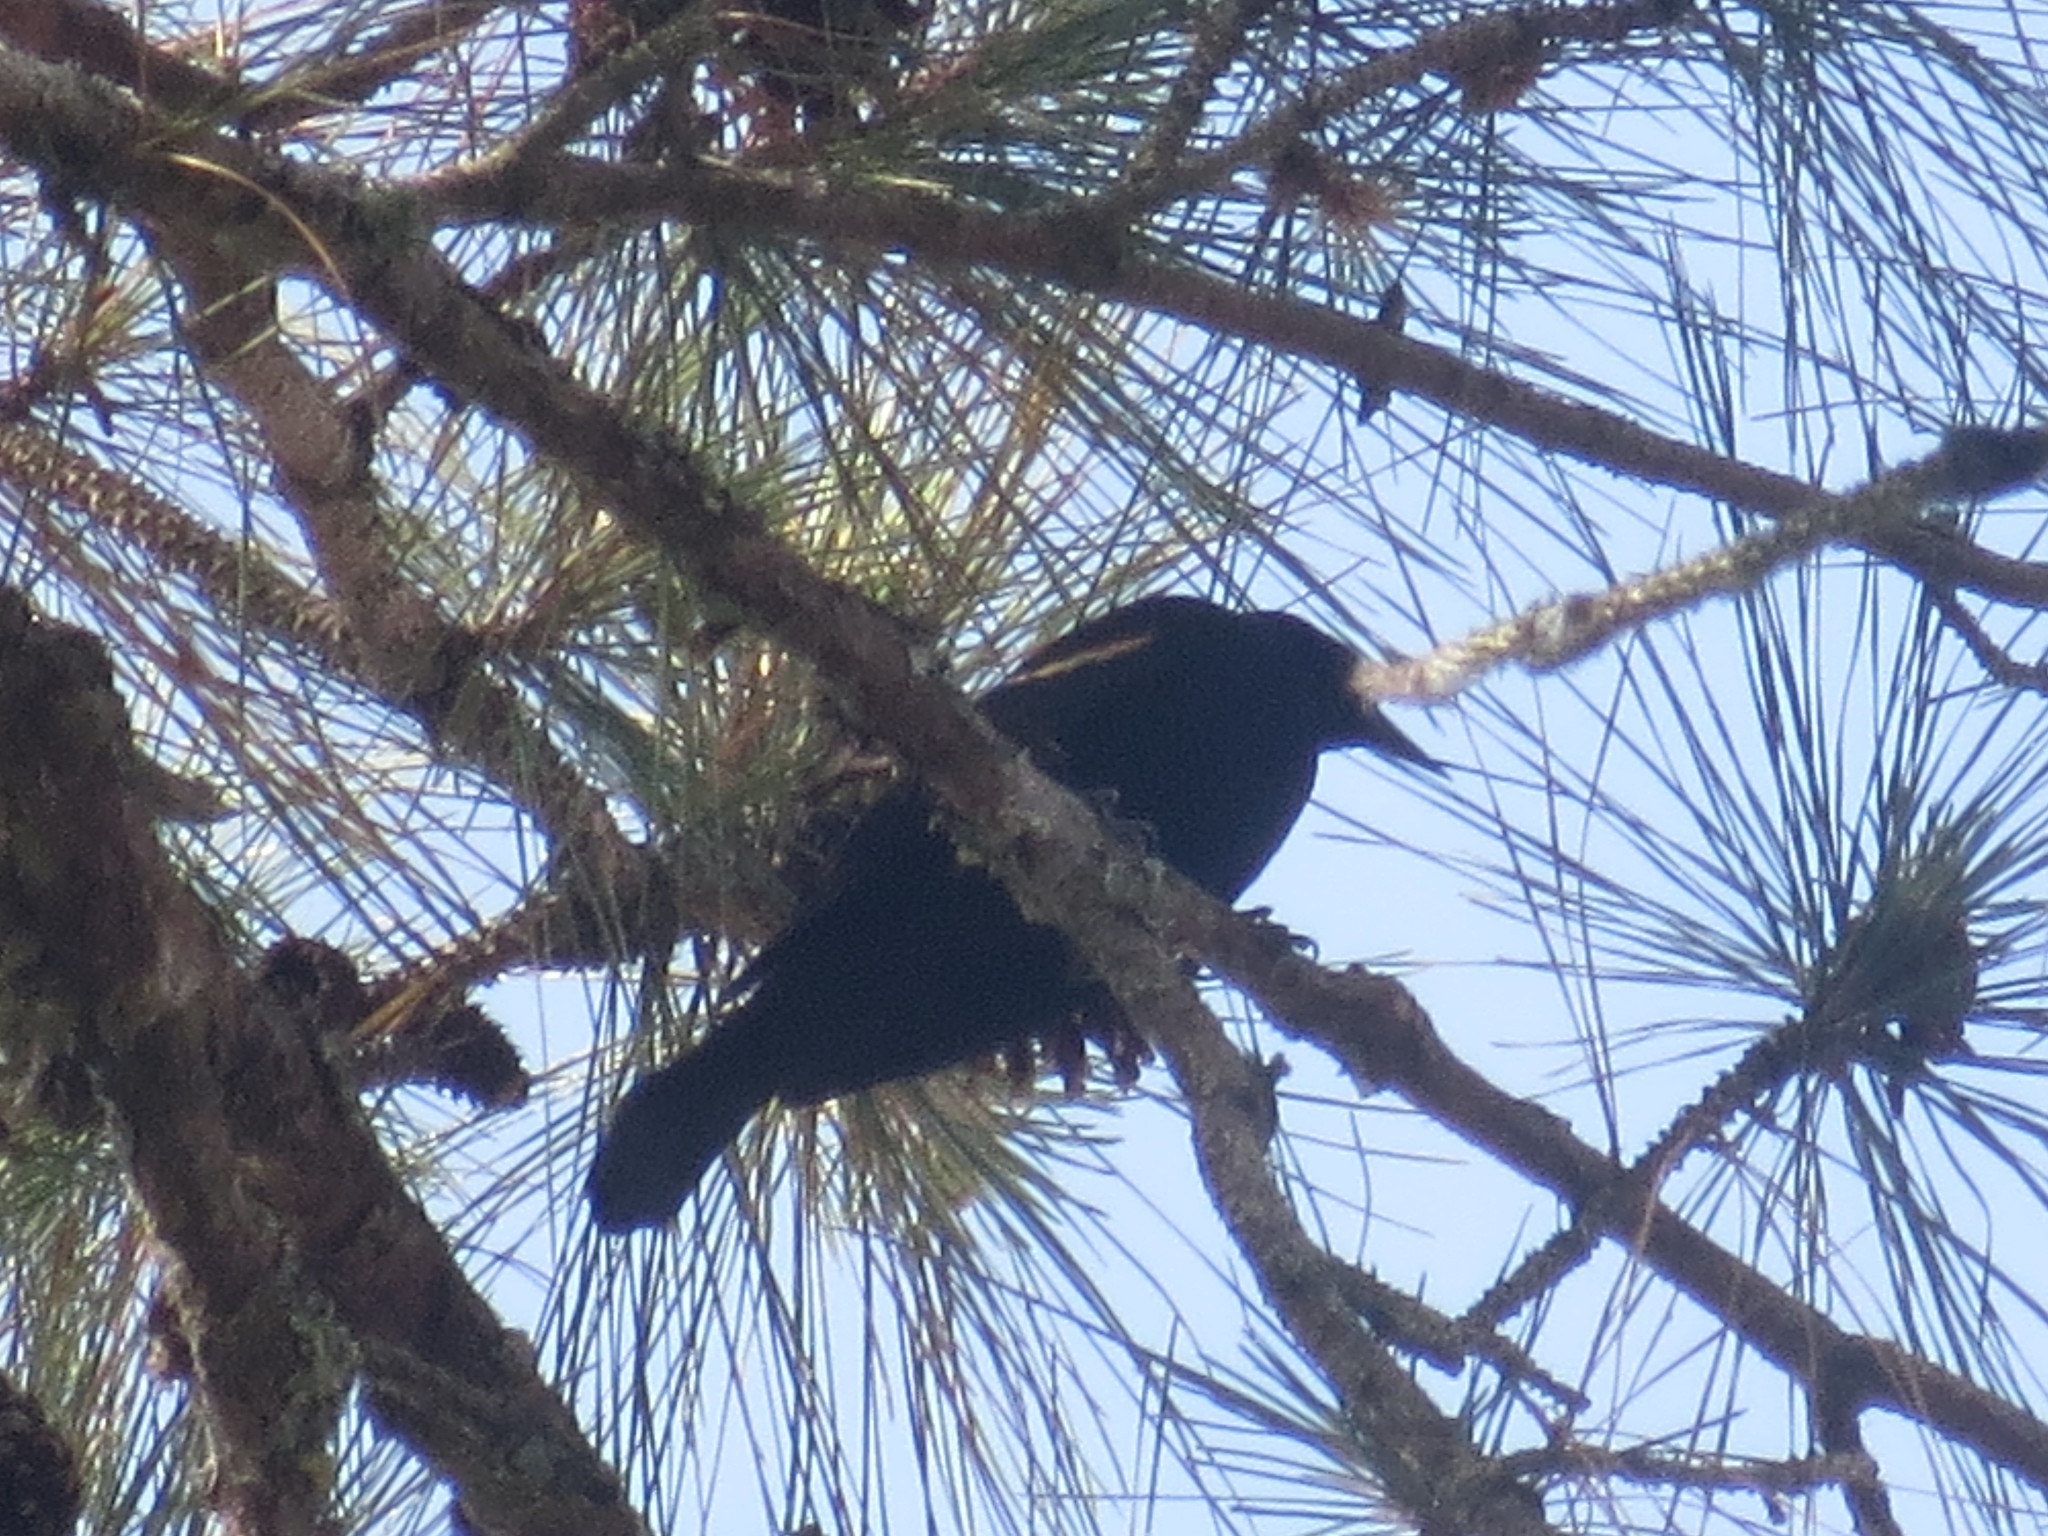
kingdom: Animalia
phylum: Chordata
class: Aves
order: Passeriformes
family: Icteridae
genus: Agelaius
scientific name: Agelaius phoeniceus
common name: Red-winged blackbird
